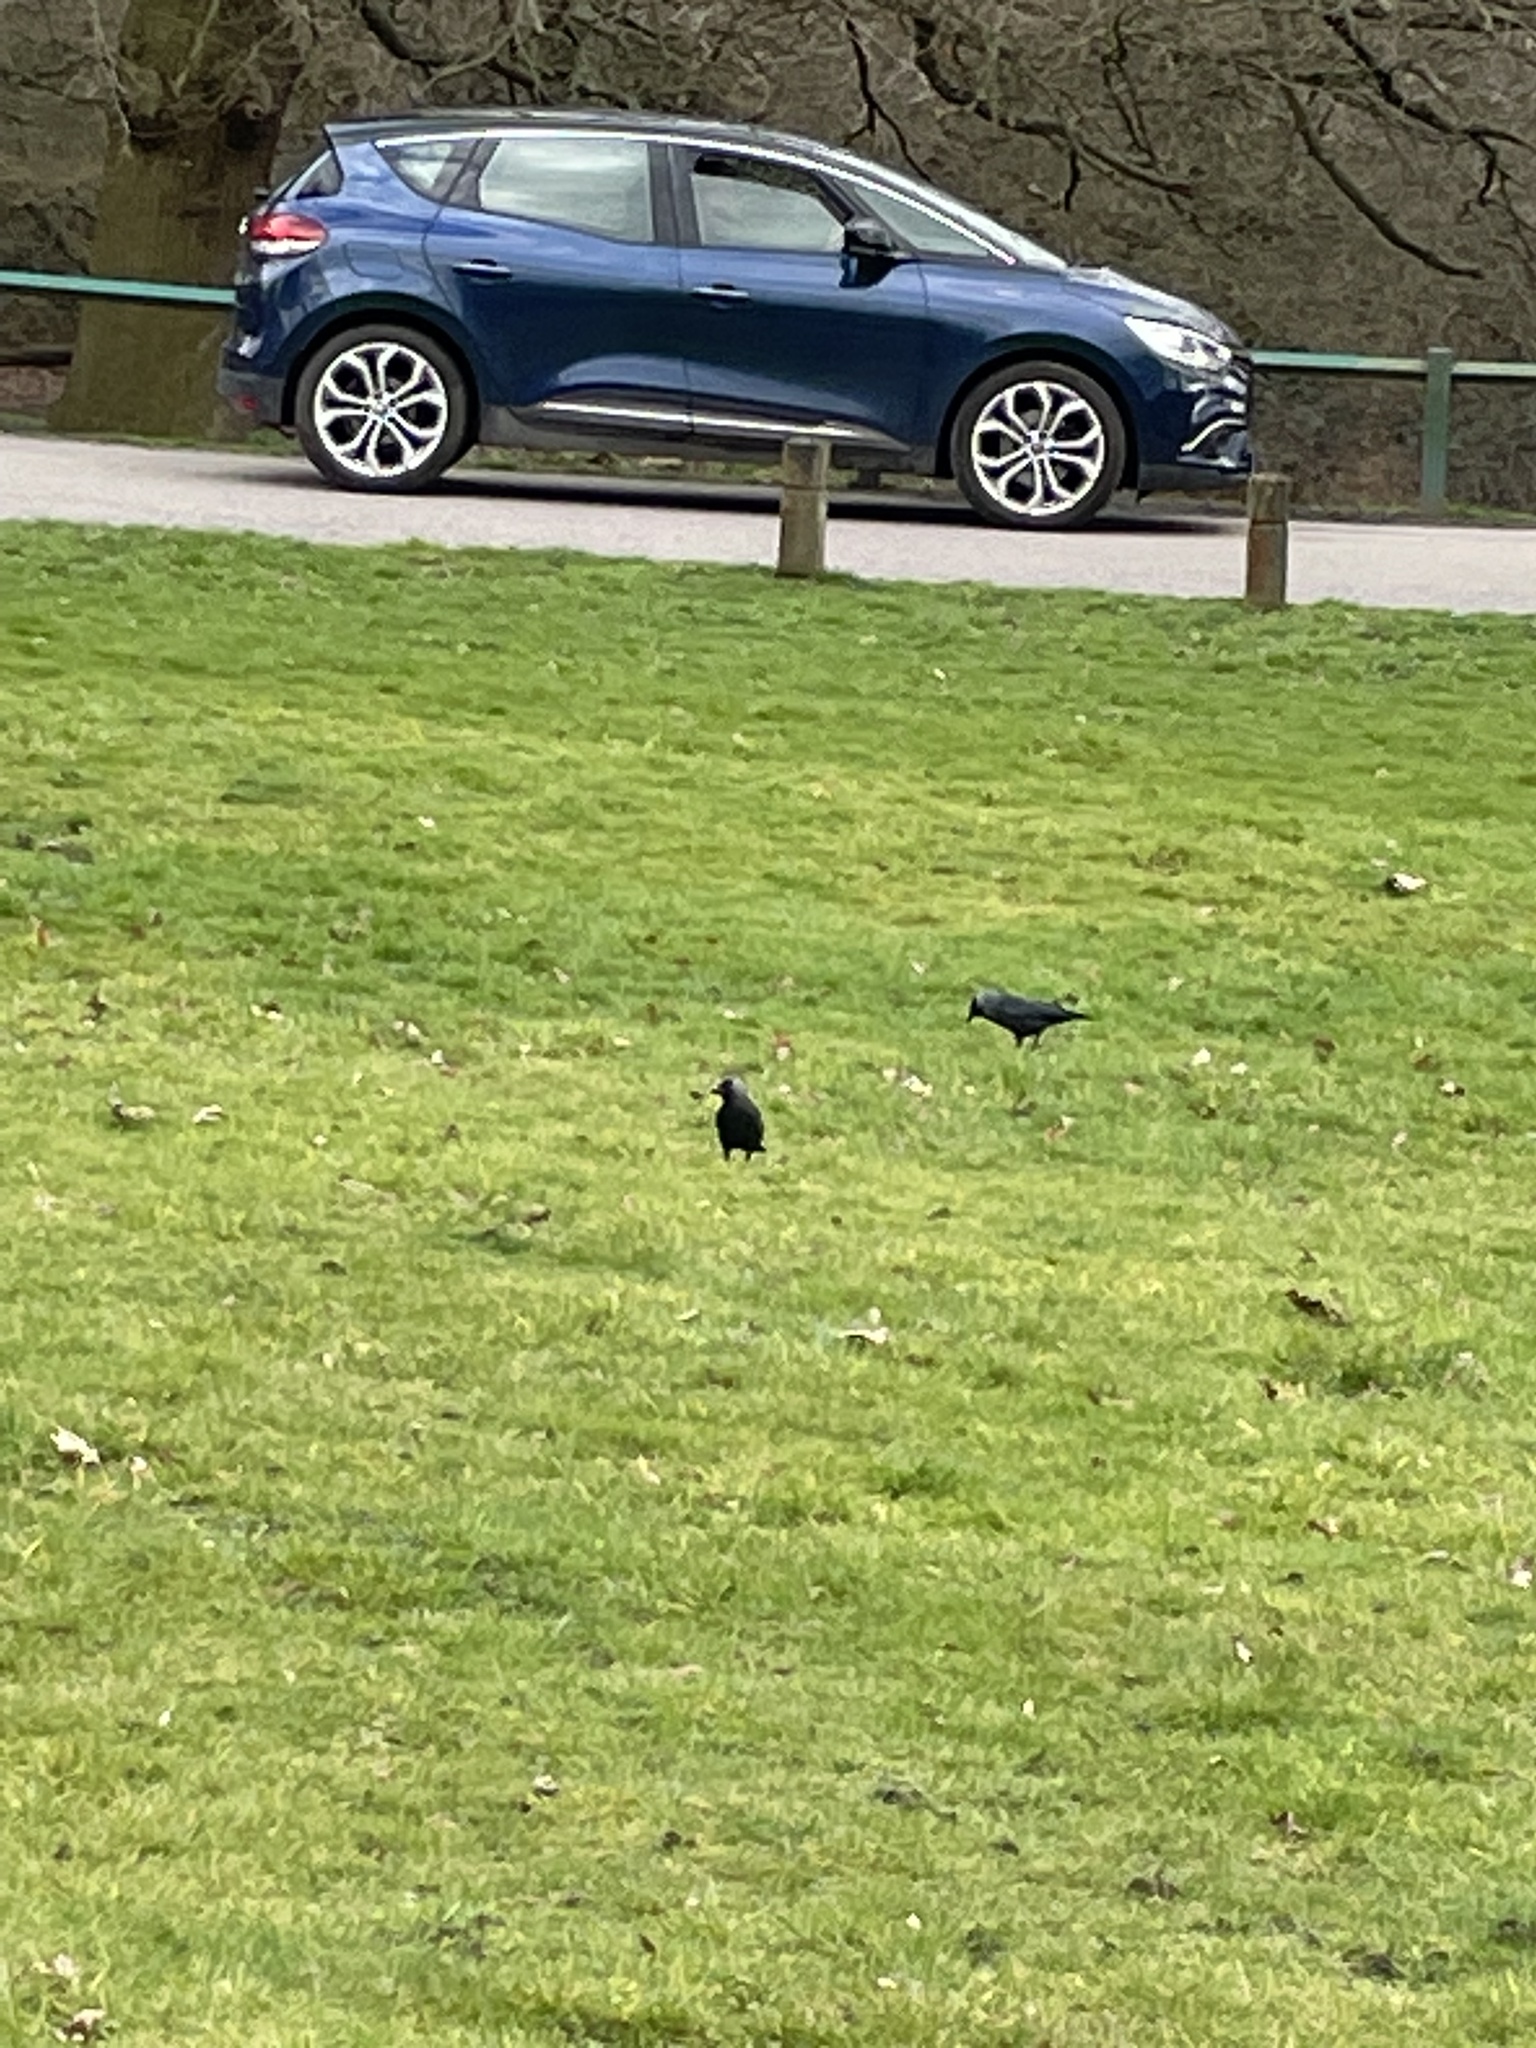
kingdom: Animalia
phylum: Chordata
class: Aves
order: Passeriformes
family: Corvidae
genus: Coloeus
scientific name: Coloeus monedula
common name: Western jackdaw
